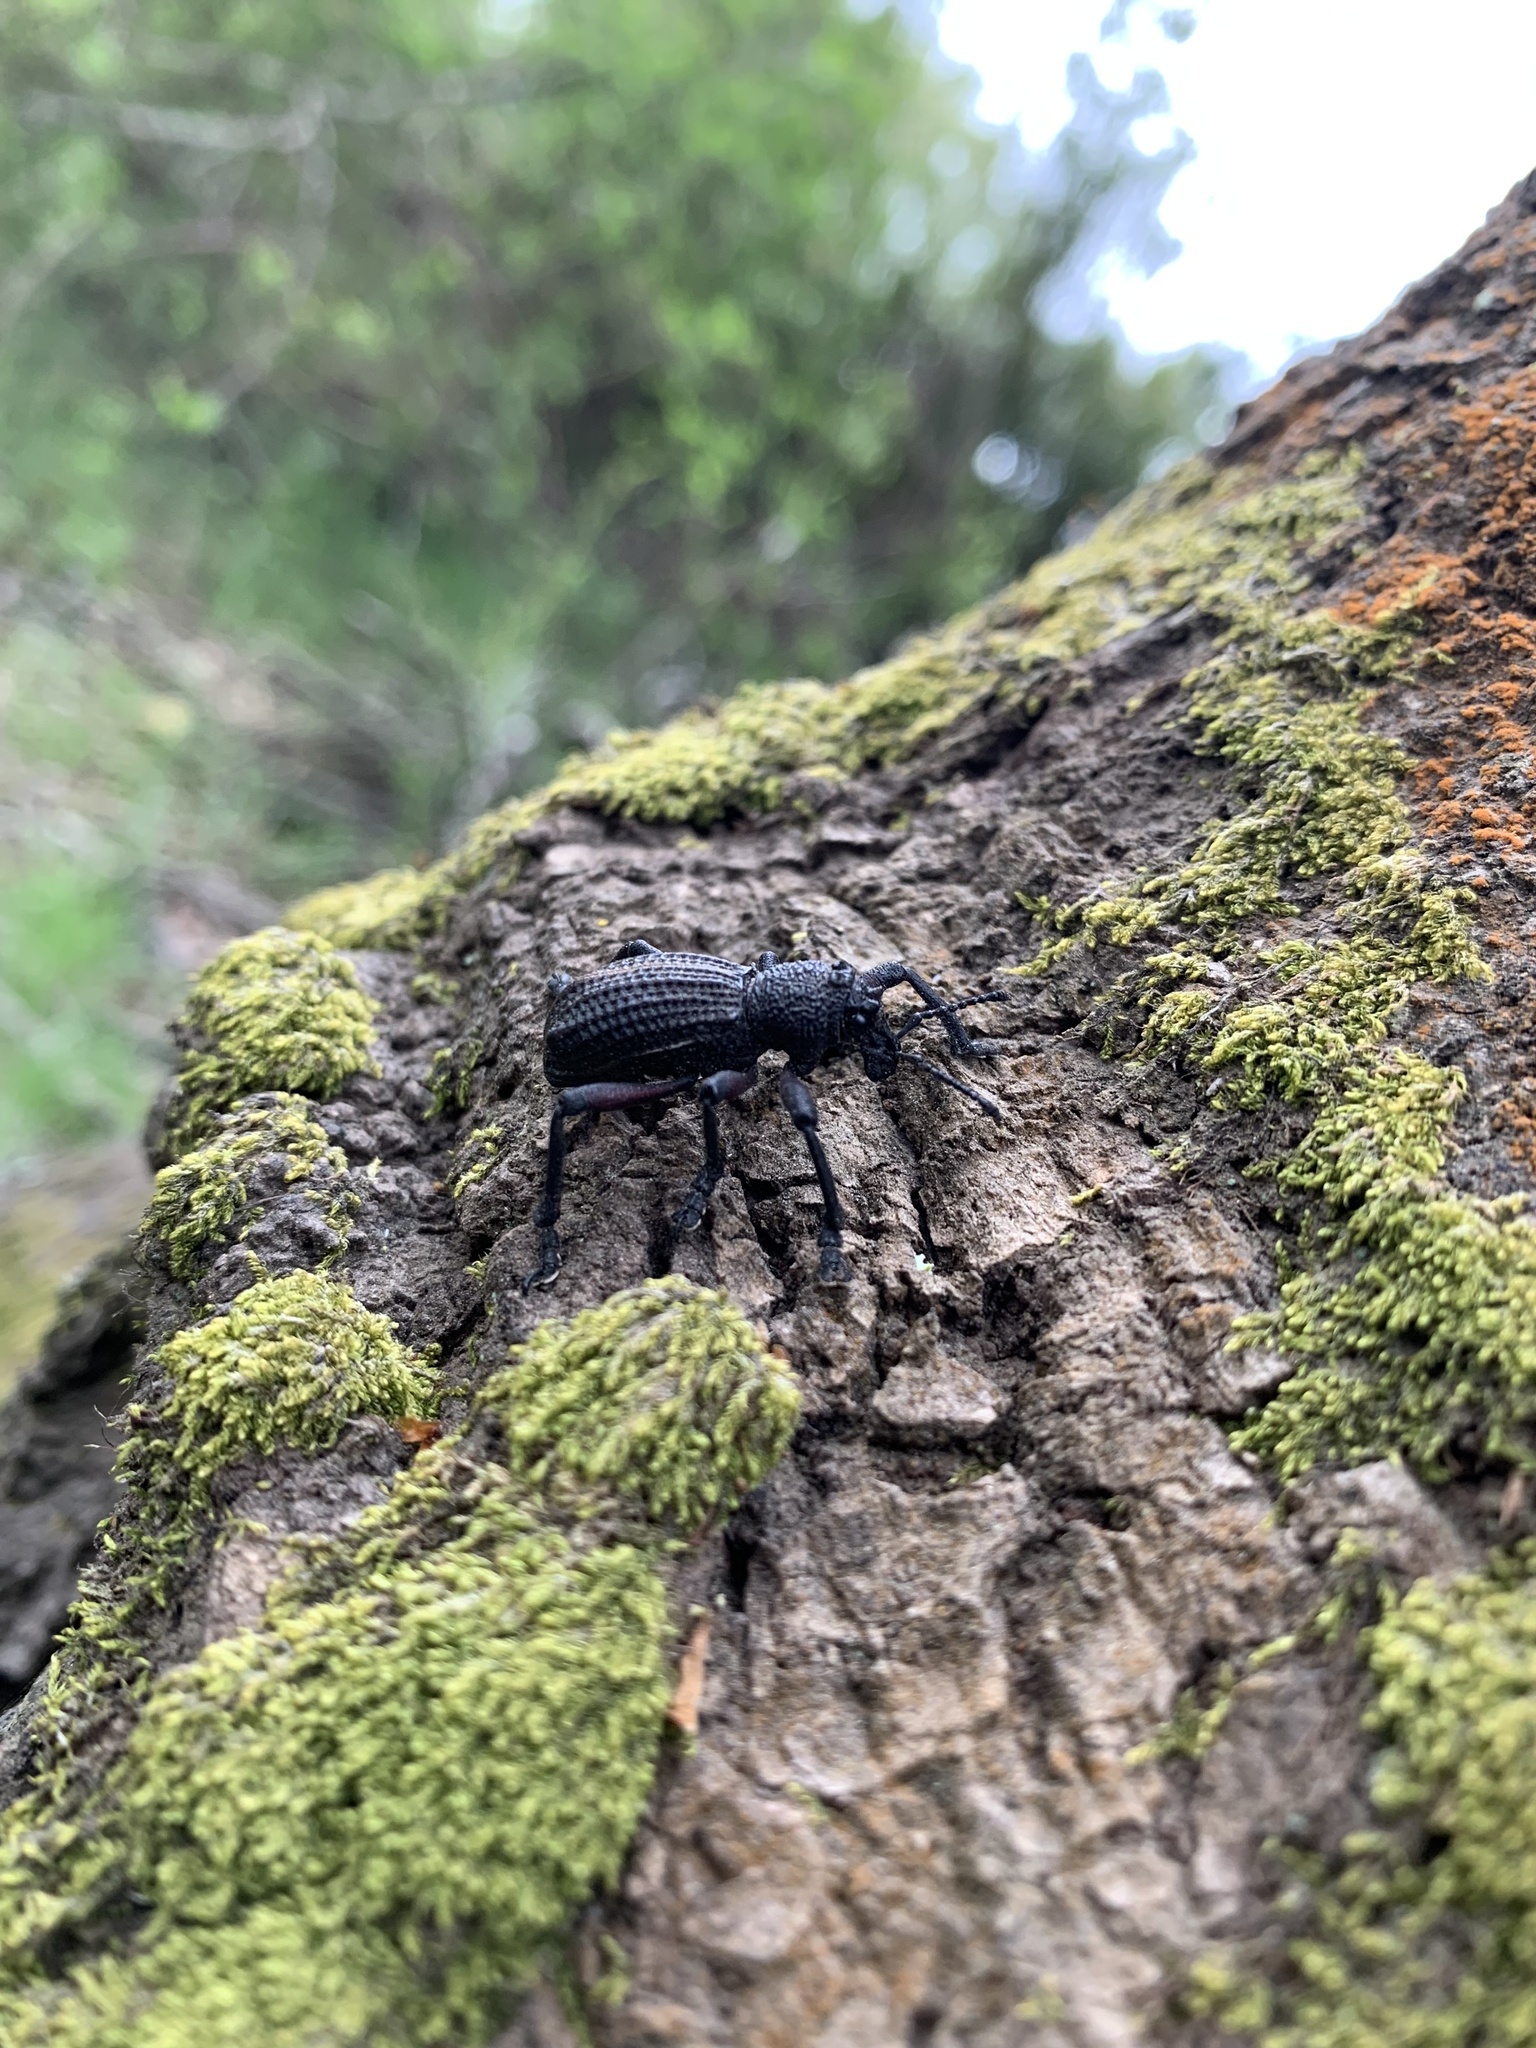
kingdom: Animalia
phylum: Arthropoda
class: Insecta
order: Coleoptera
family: Curculionidae
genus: Aegorhinus
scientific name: Aegorhinus
